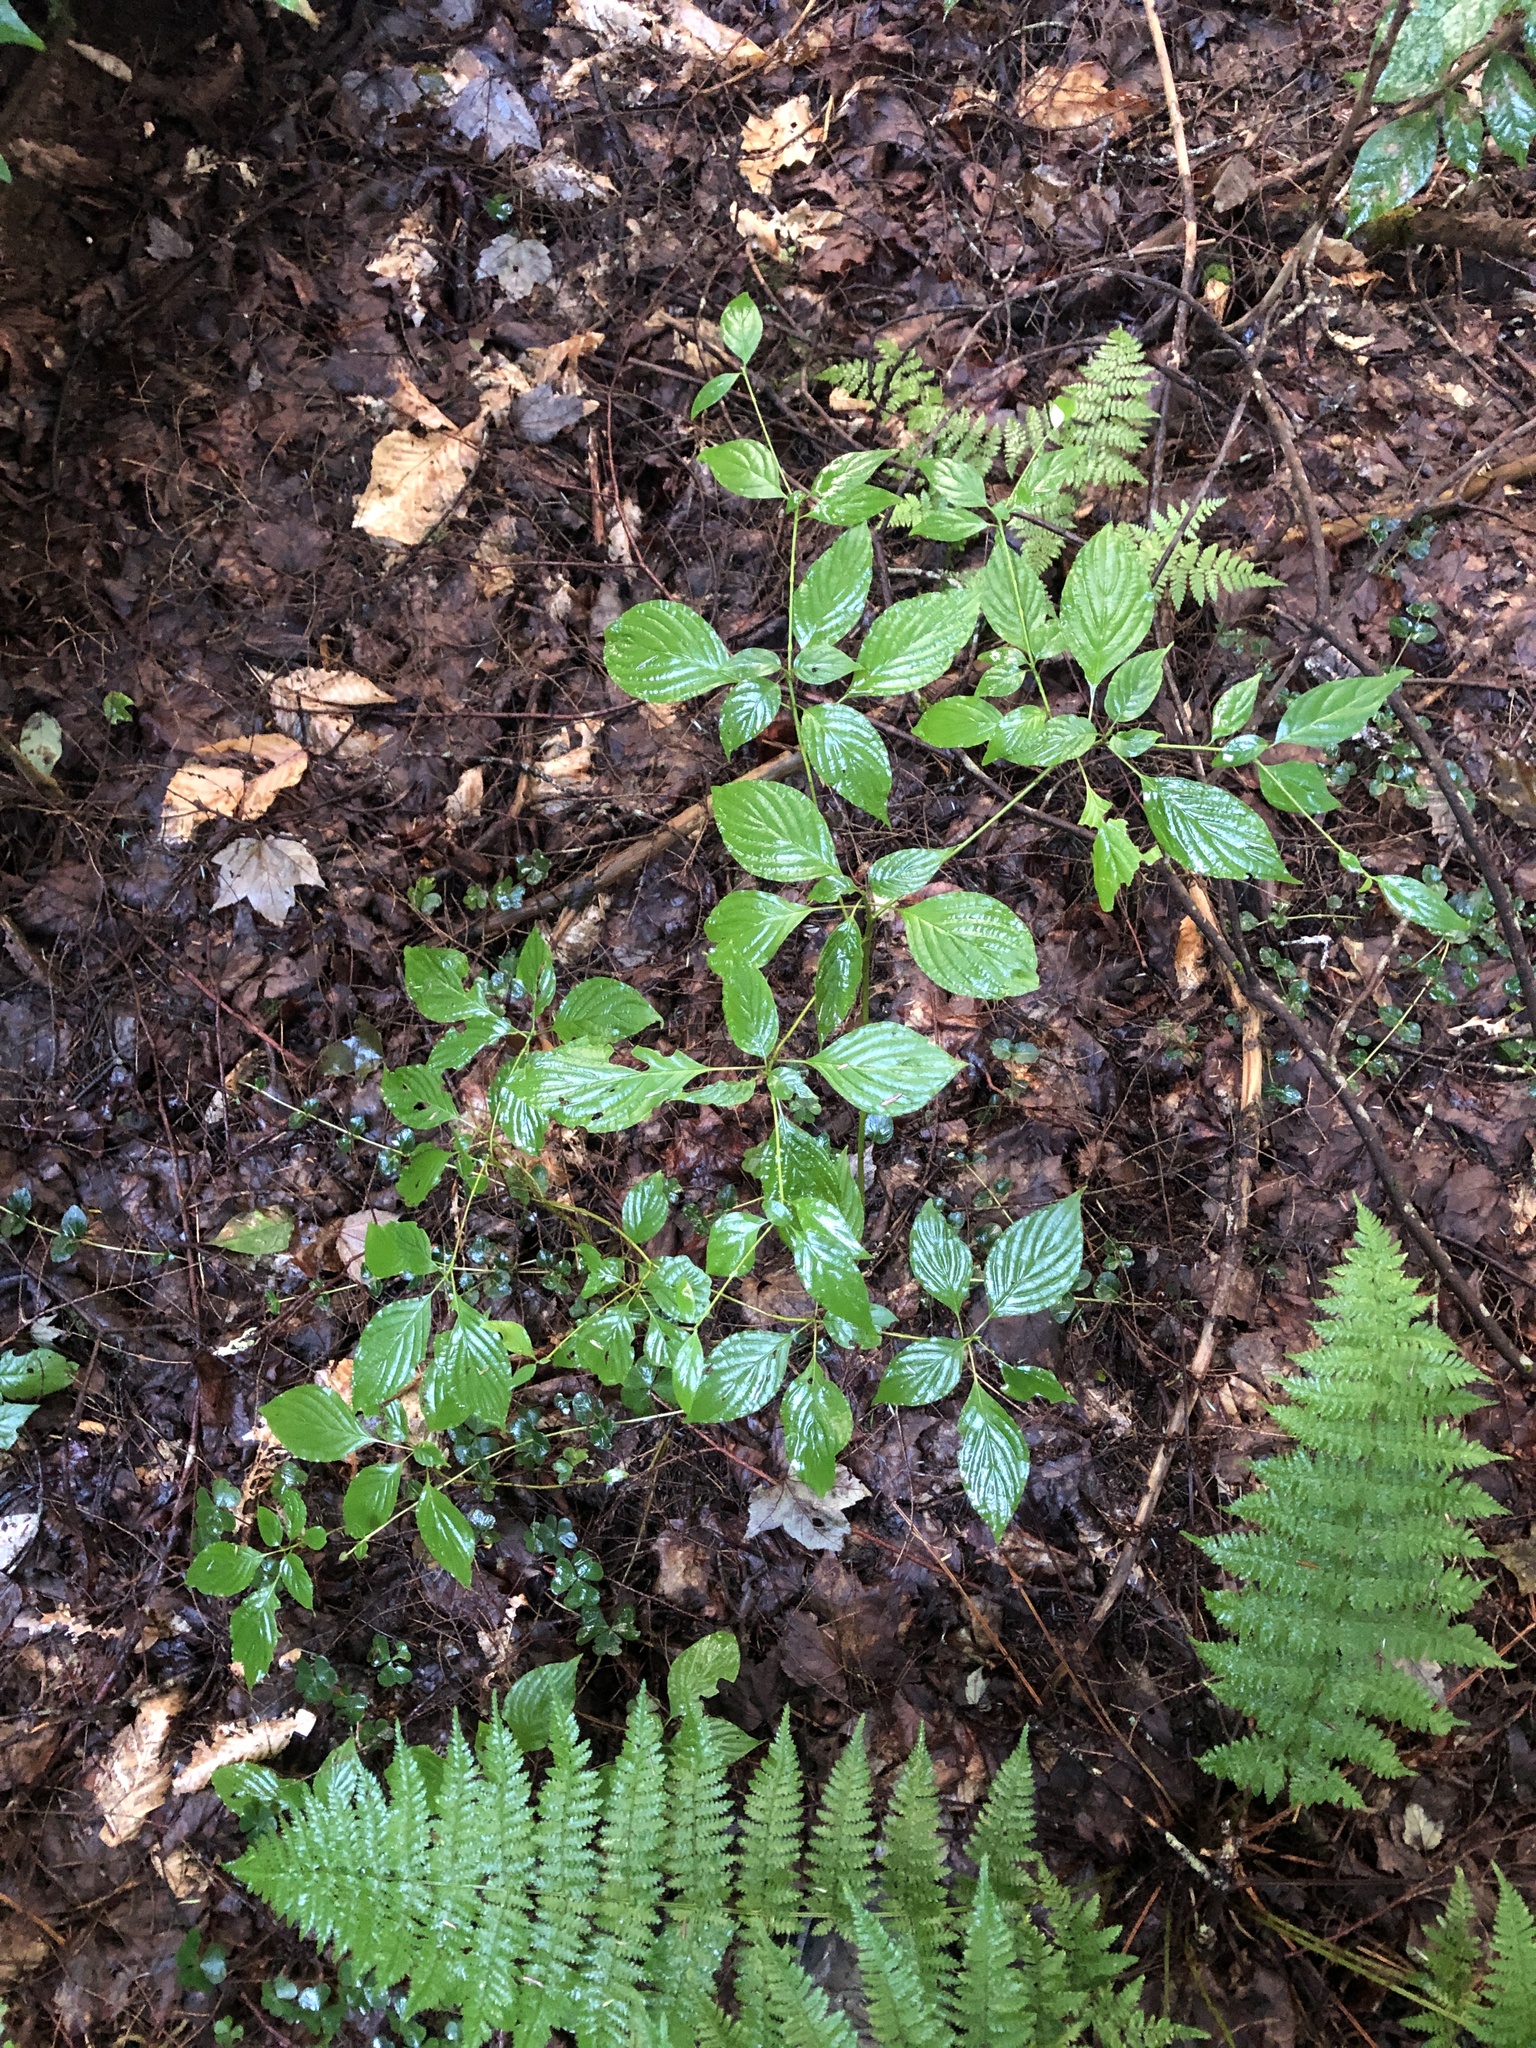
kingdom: Plantae
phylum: Tracheophyta
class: Magnoliopsida
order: Cornales
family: Cornaceae
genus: Cornus
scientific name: Cornus alternifolia
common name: Pagoda dogwood
